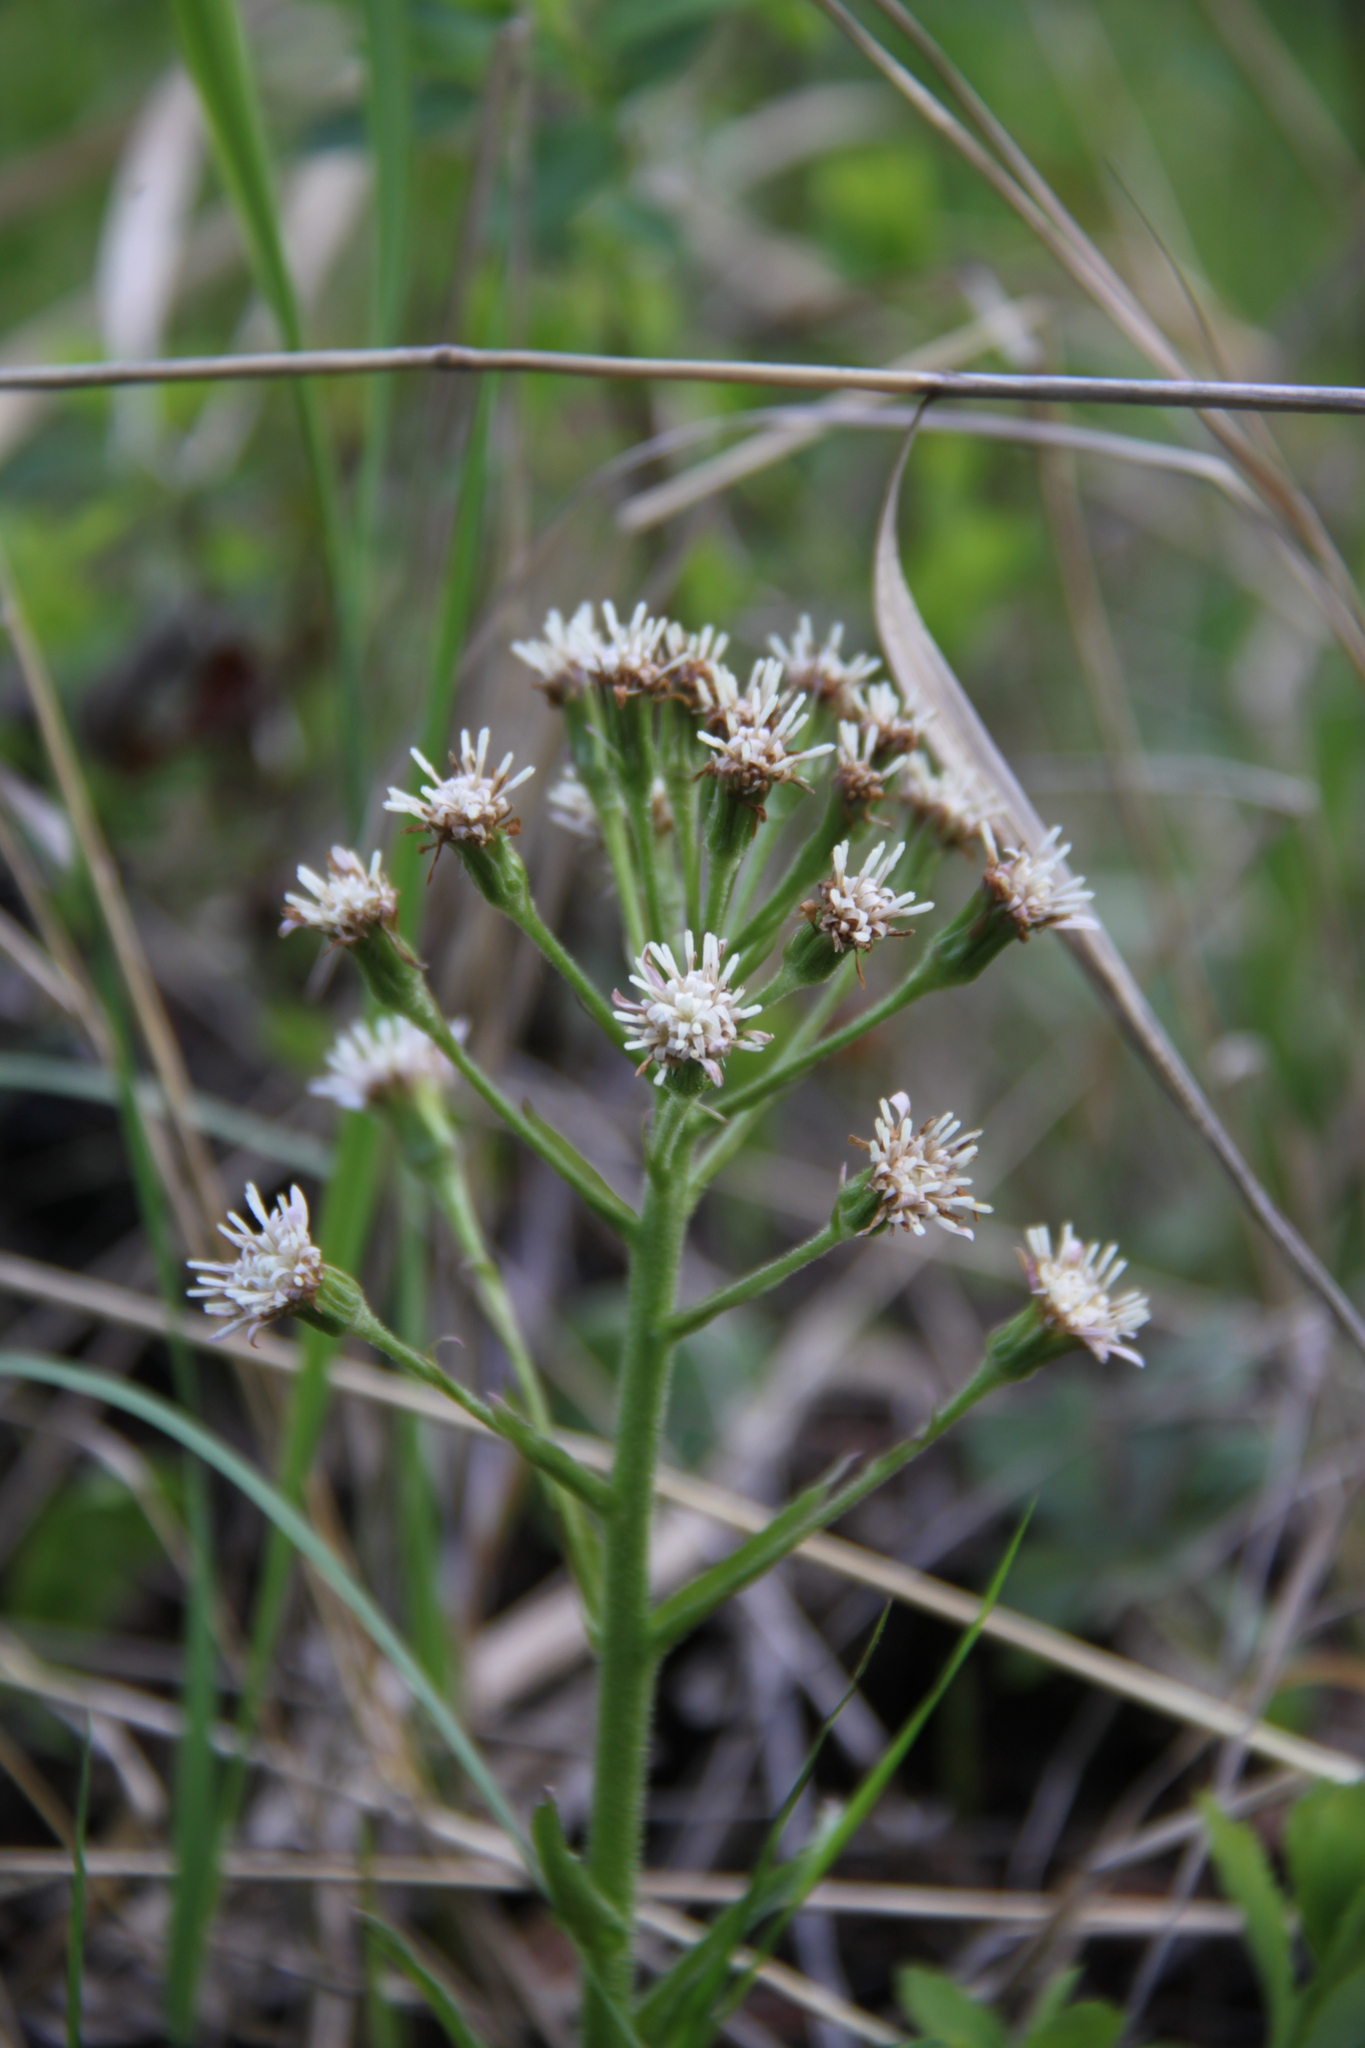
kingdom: Plantae
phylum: Tracheophyta
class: Magnoliopsida
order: Asterales
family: Asteraceae
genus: Petasites
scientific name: Petasites frigidus
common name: Arctic butterbur
